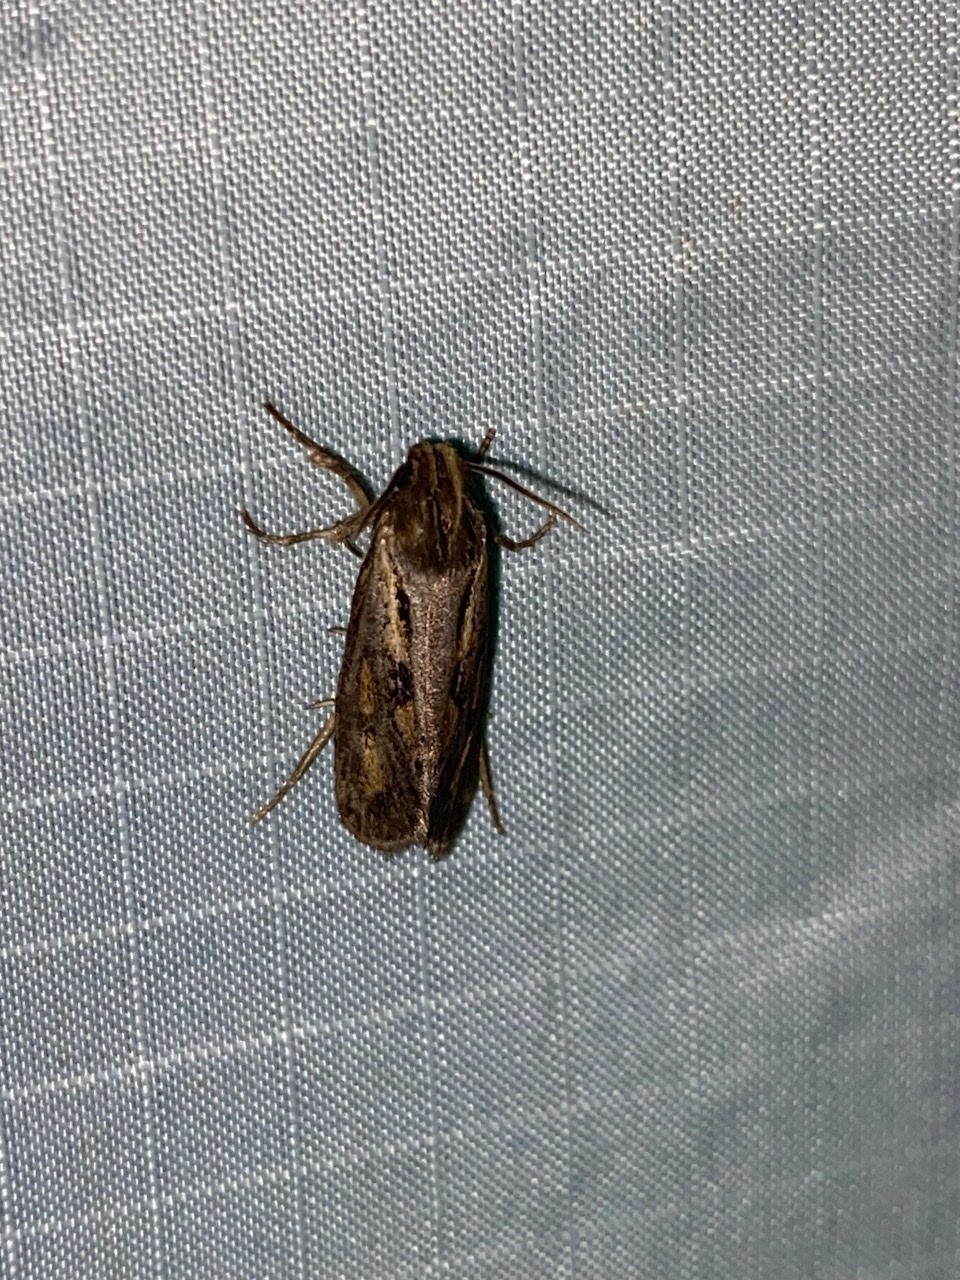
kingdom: Animalia
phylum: Arthropoda
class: Insecta
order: Lepidoptera
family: Tineidae
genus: Acrolophus
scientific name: Acrolophus popeanella
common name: Clemens' grass tubeworm moth
